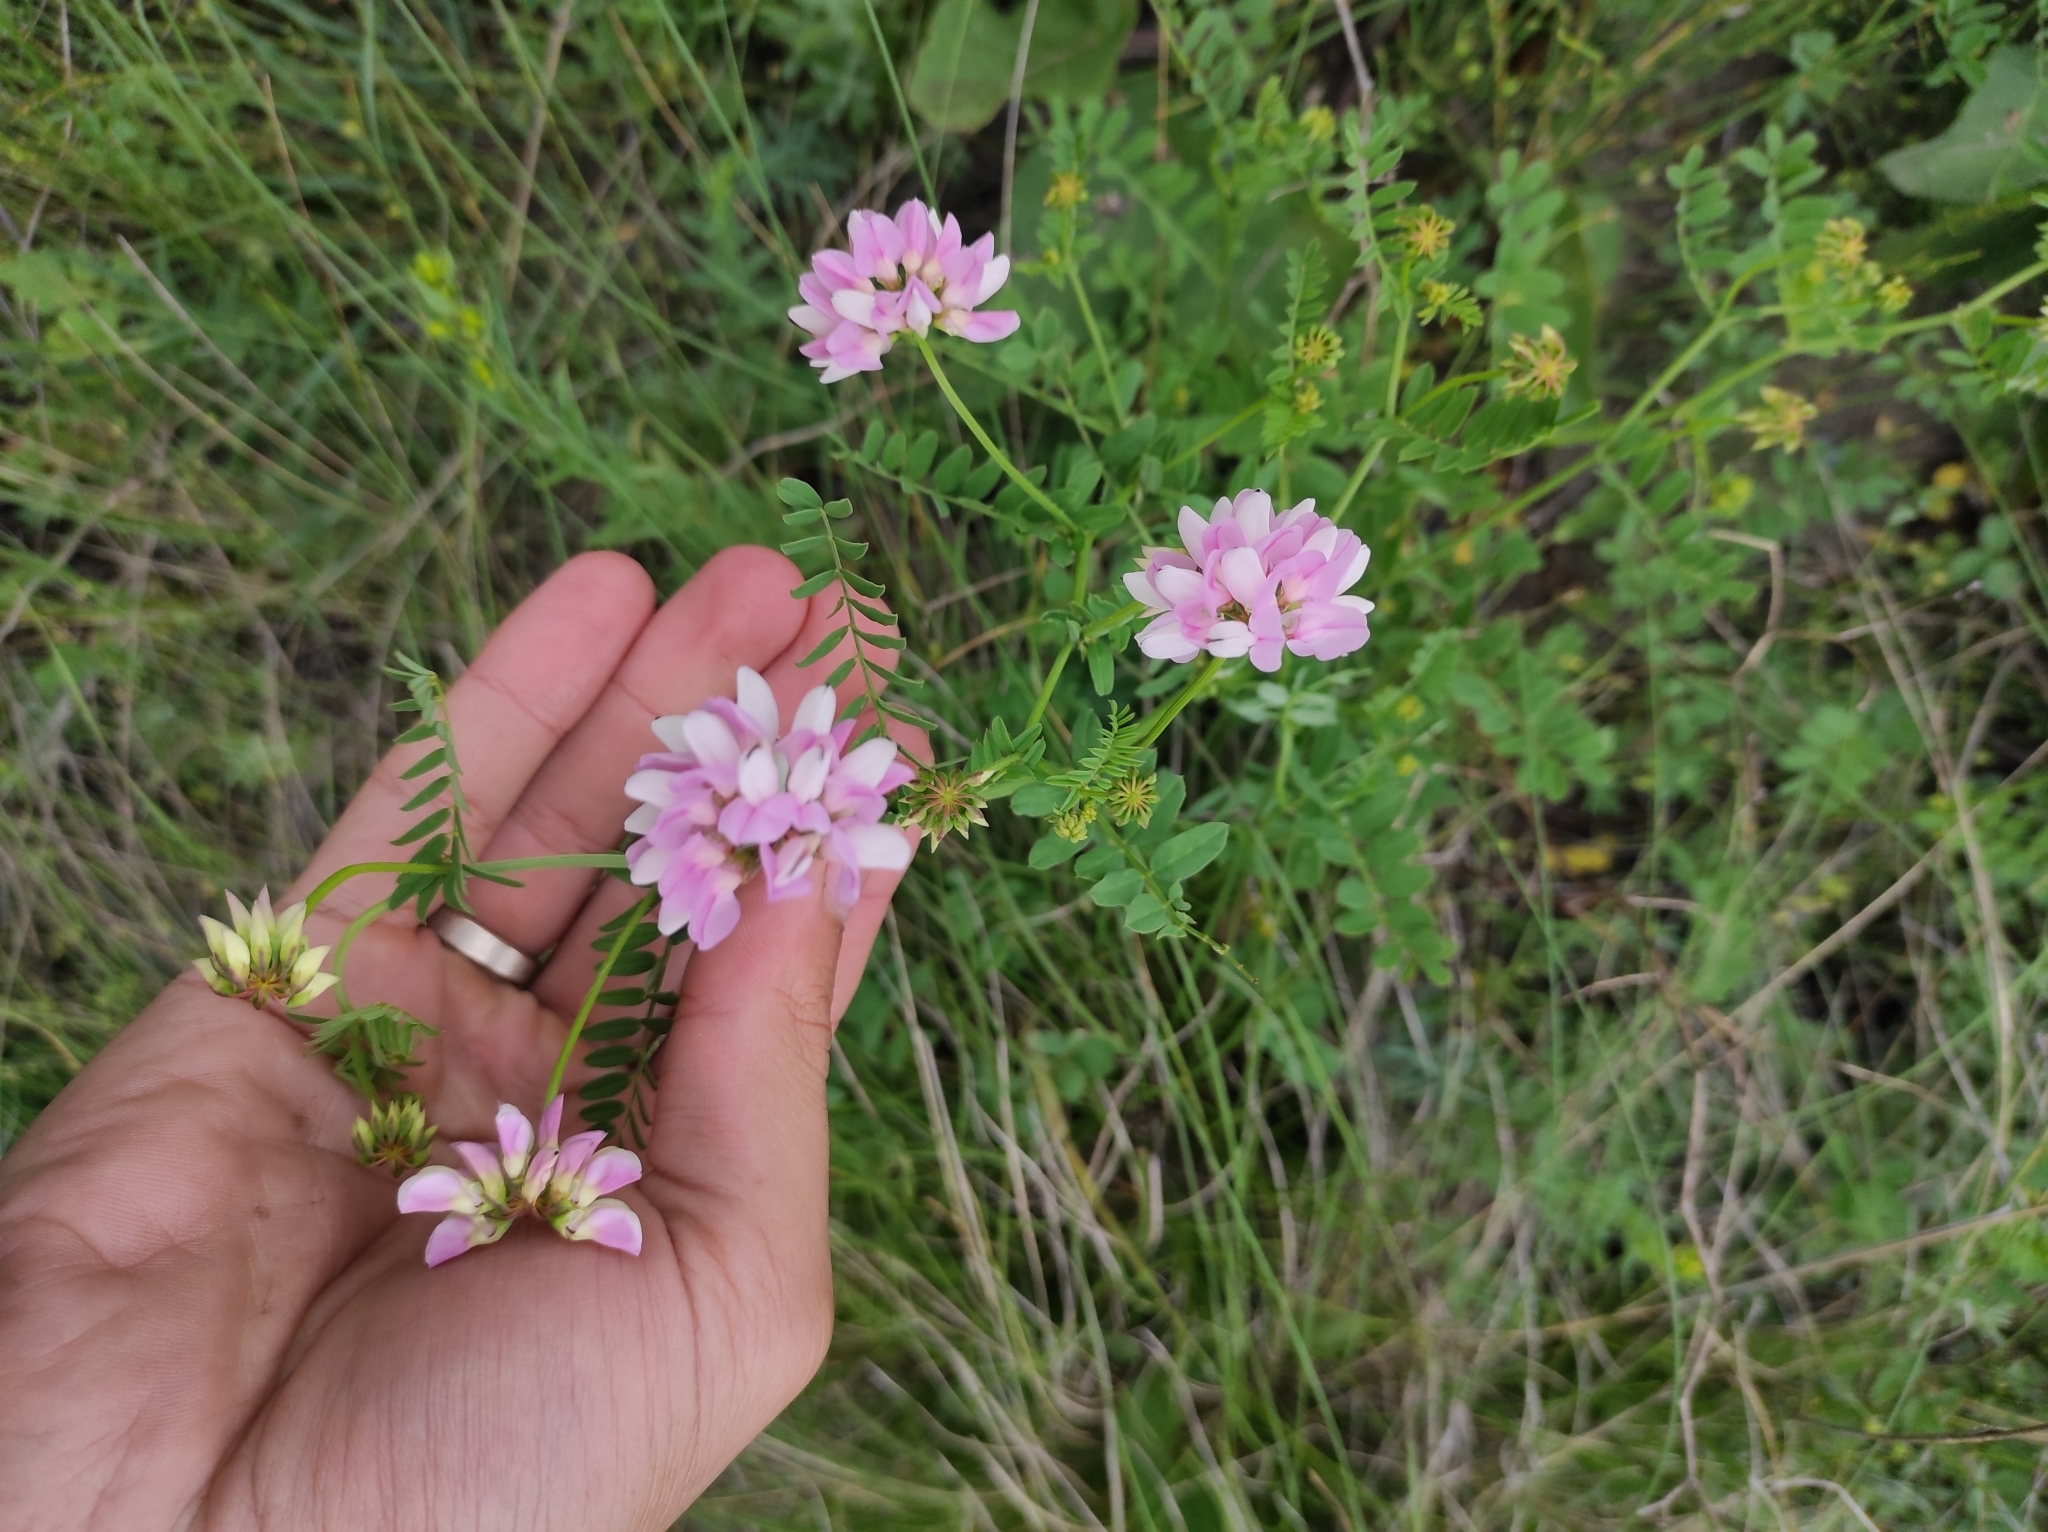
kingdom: Plantae
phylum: Tracheophyta
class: Magnoliopsida
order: Fabales
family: Fabaceae
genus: Coronilla
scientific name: Coronilla varia
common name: Crownvetch
